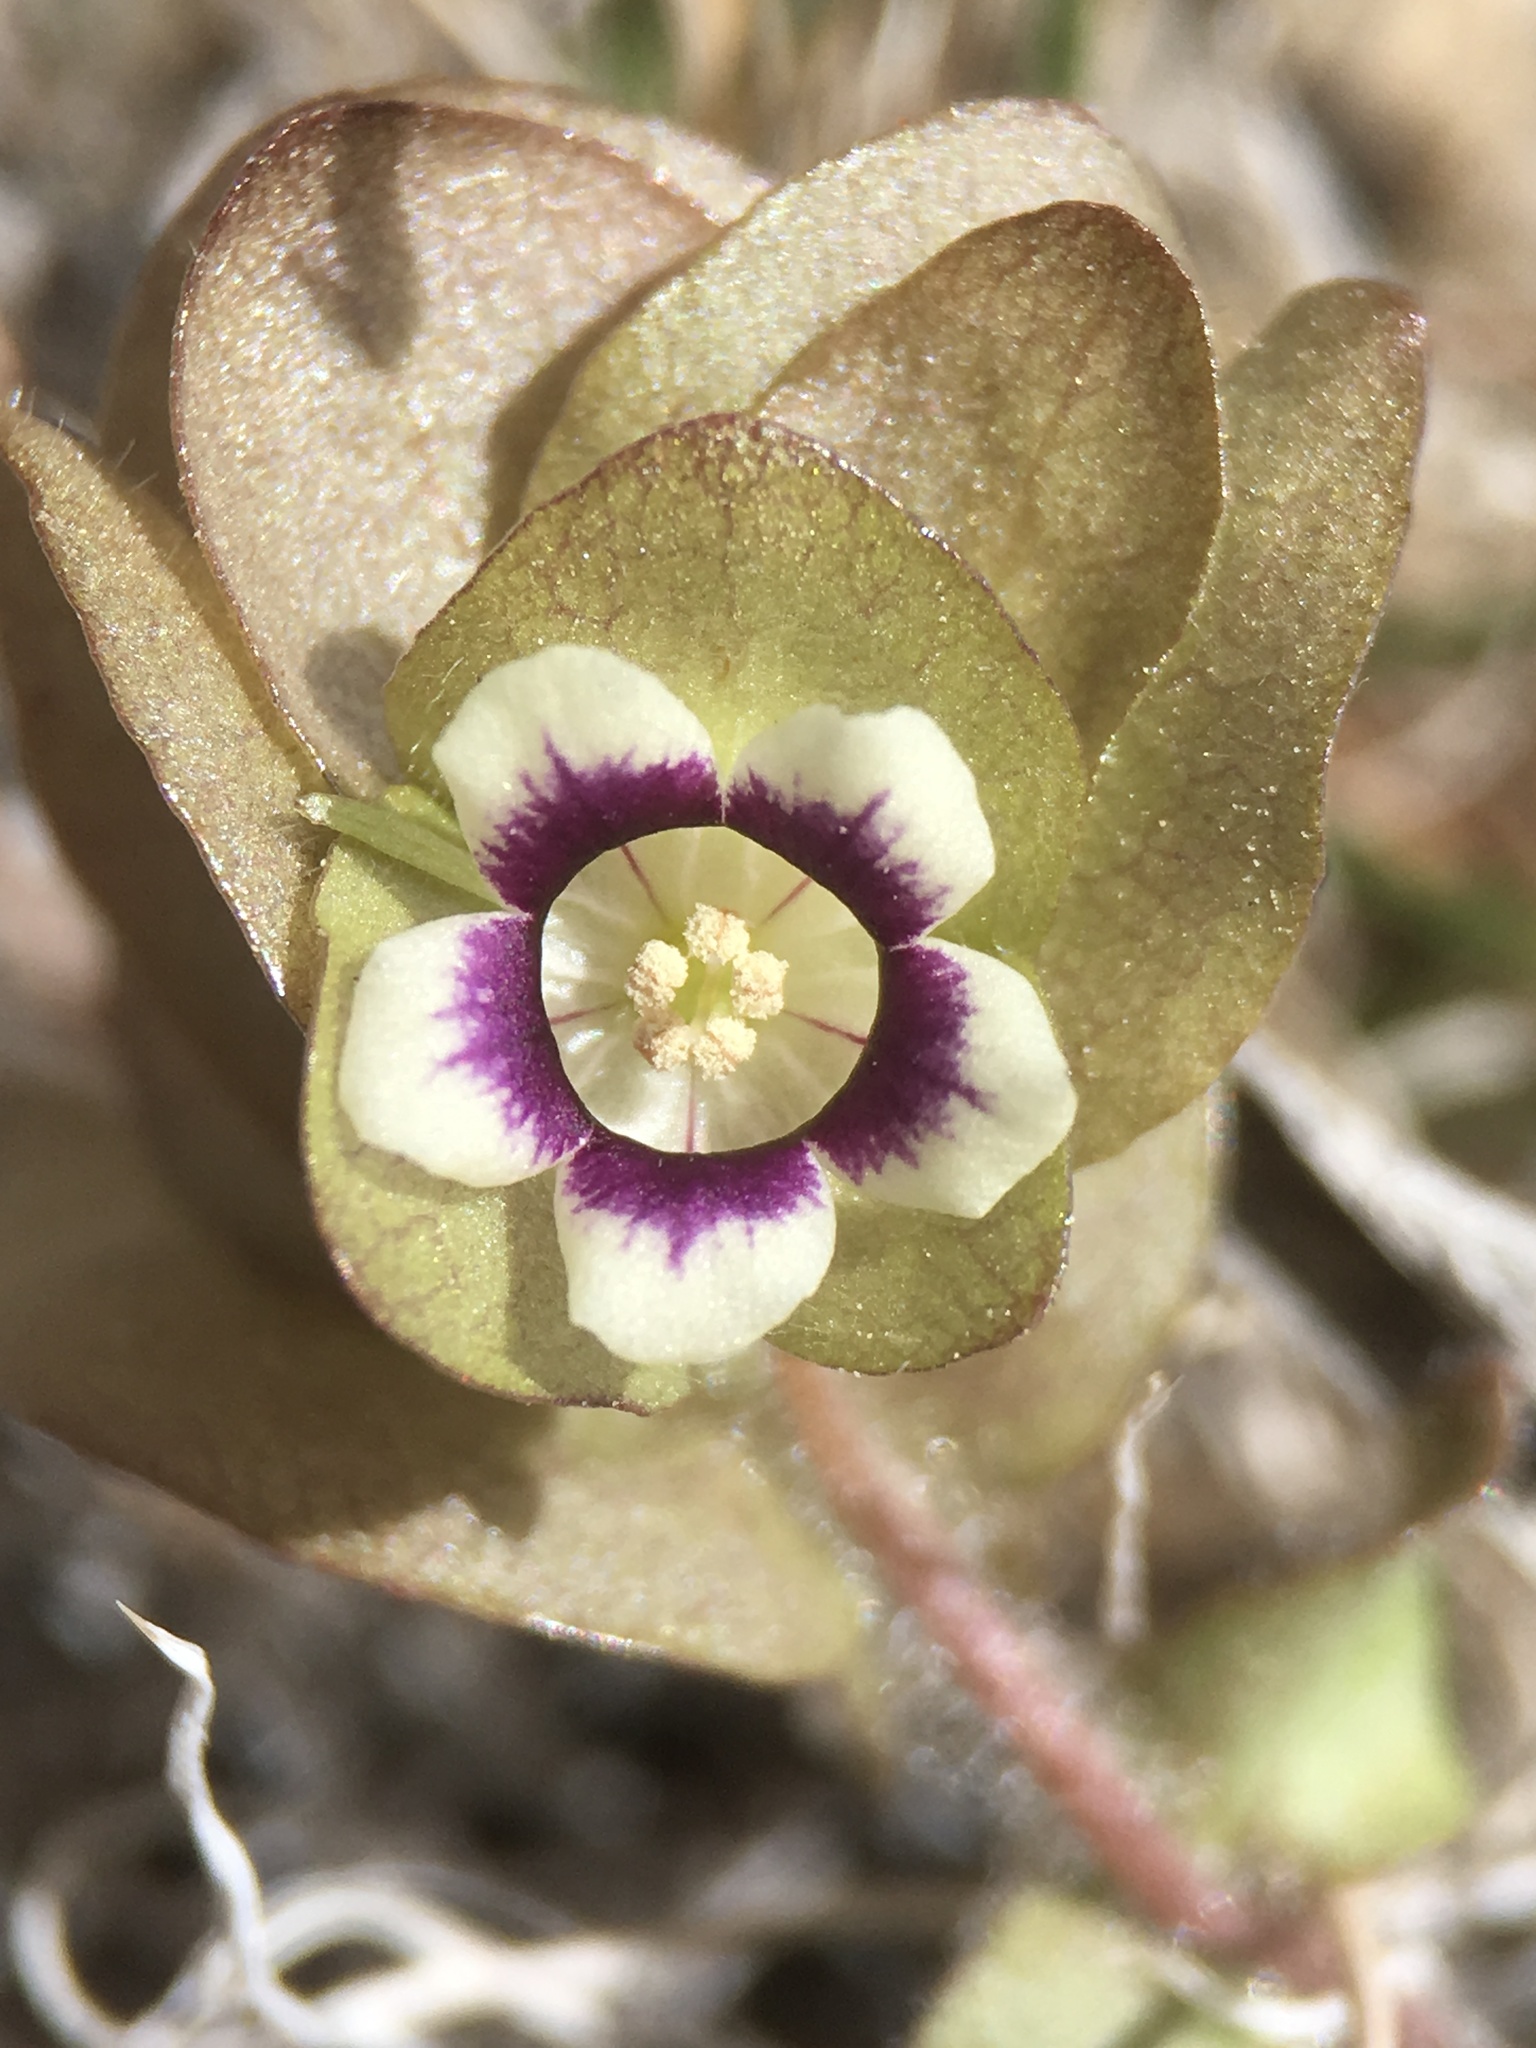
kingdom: Plantae
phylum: Tracheophyta
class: Magnoliopsida
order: Boraginales
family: Hydrophyllaceae
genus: Tricardia
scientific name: Tricardia watsonii
